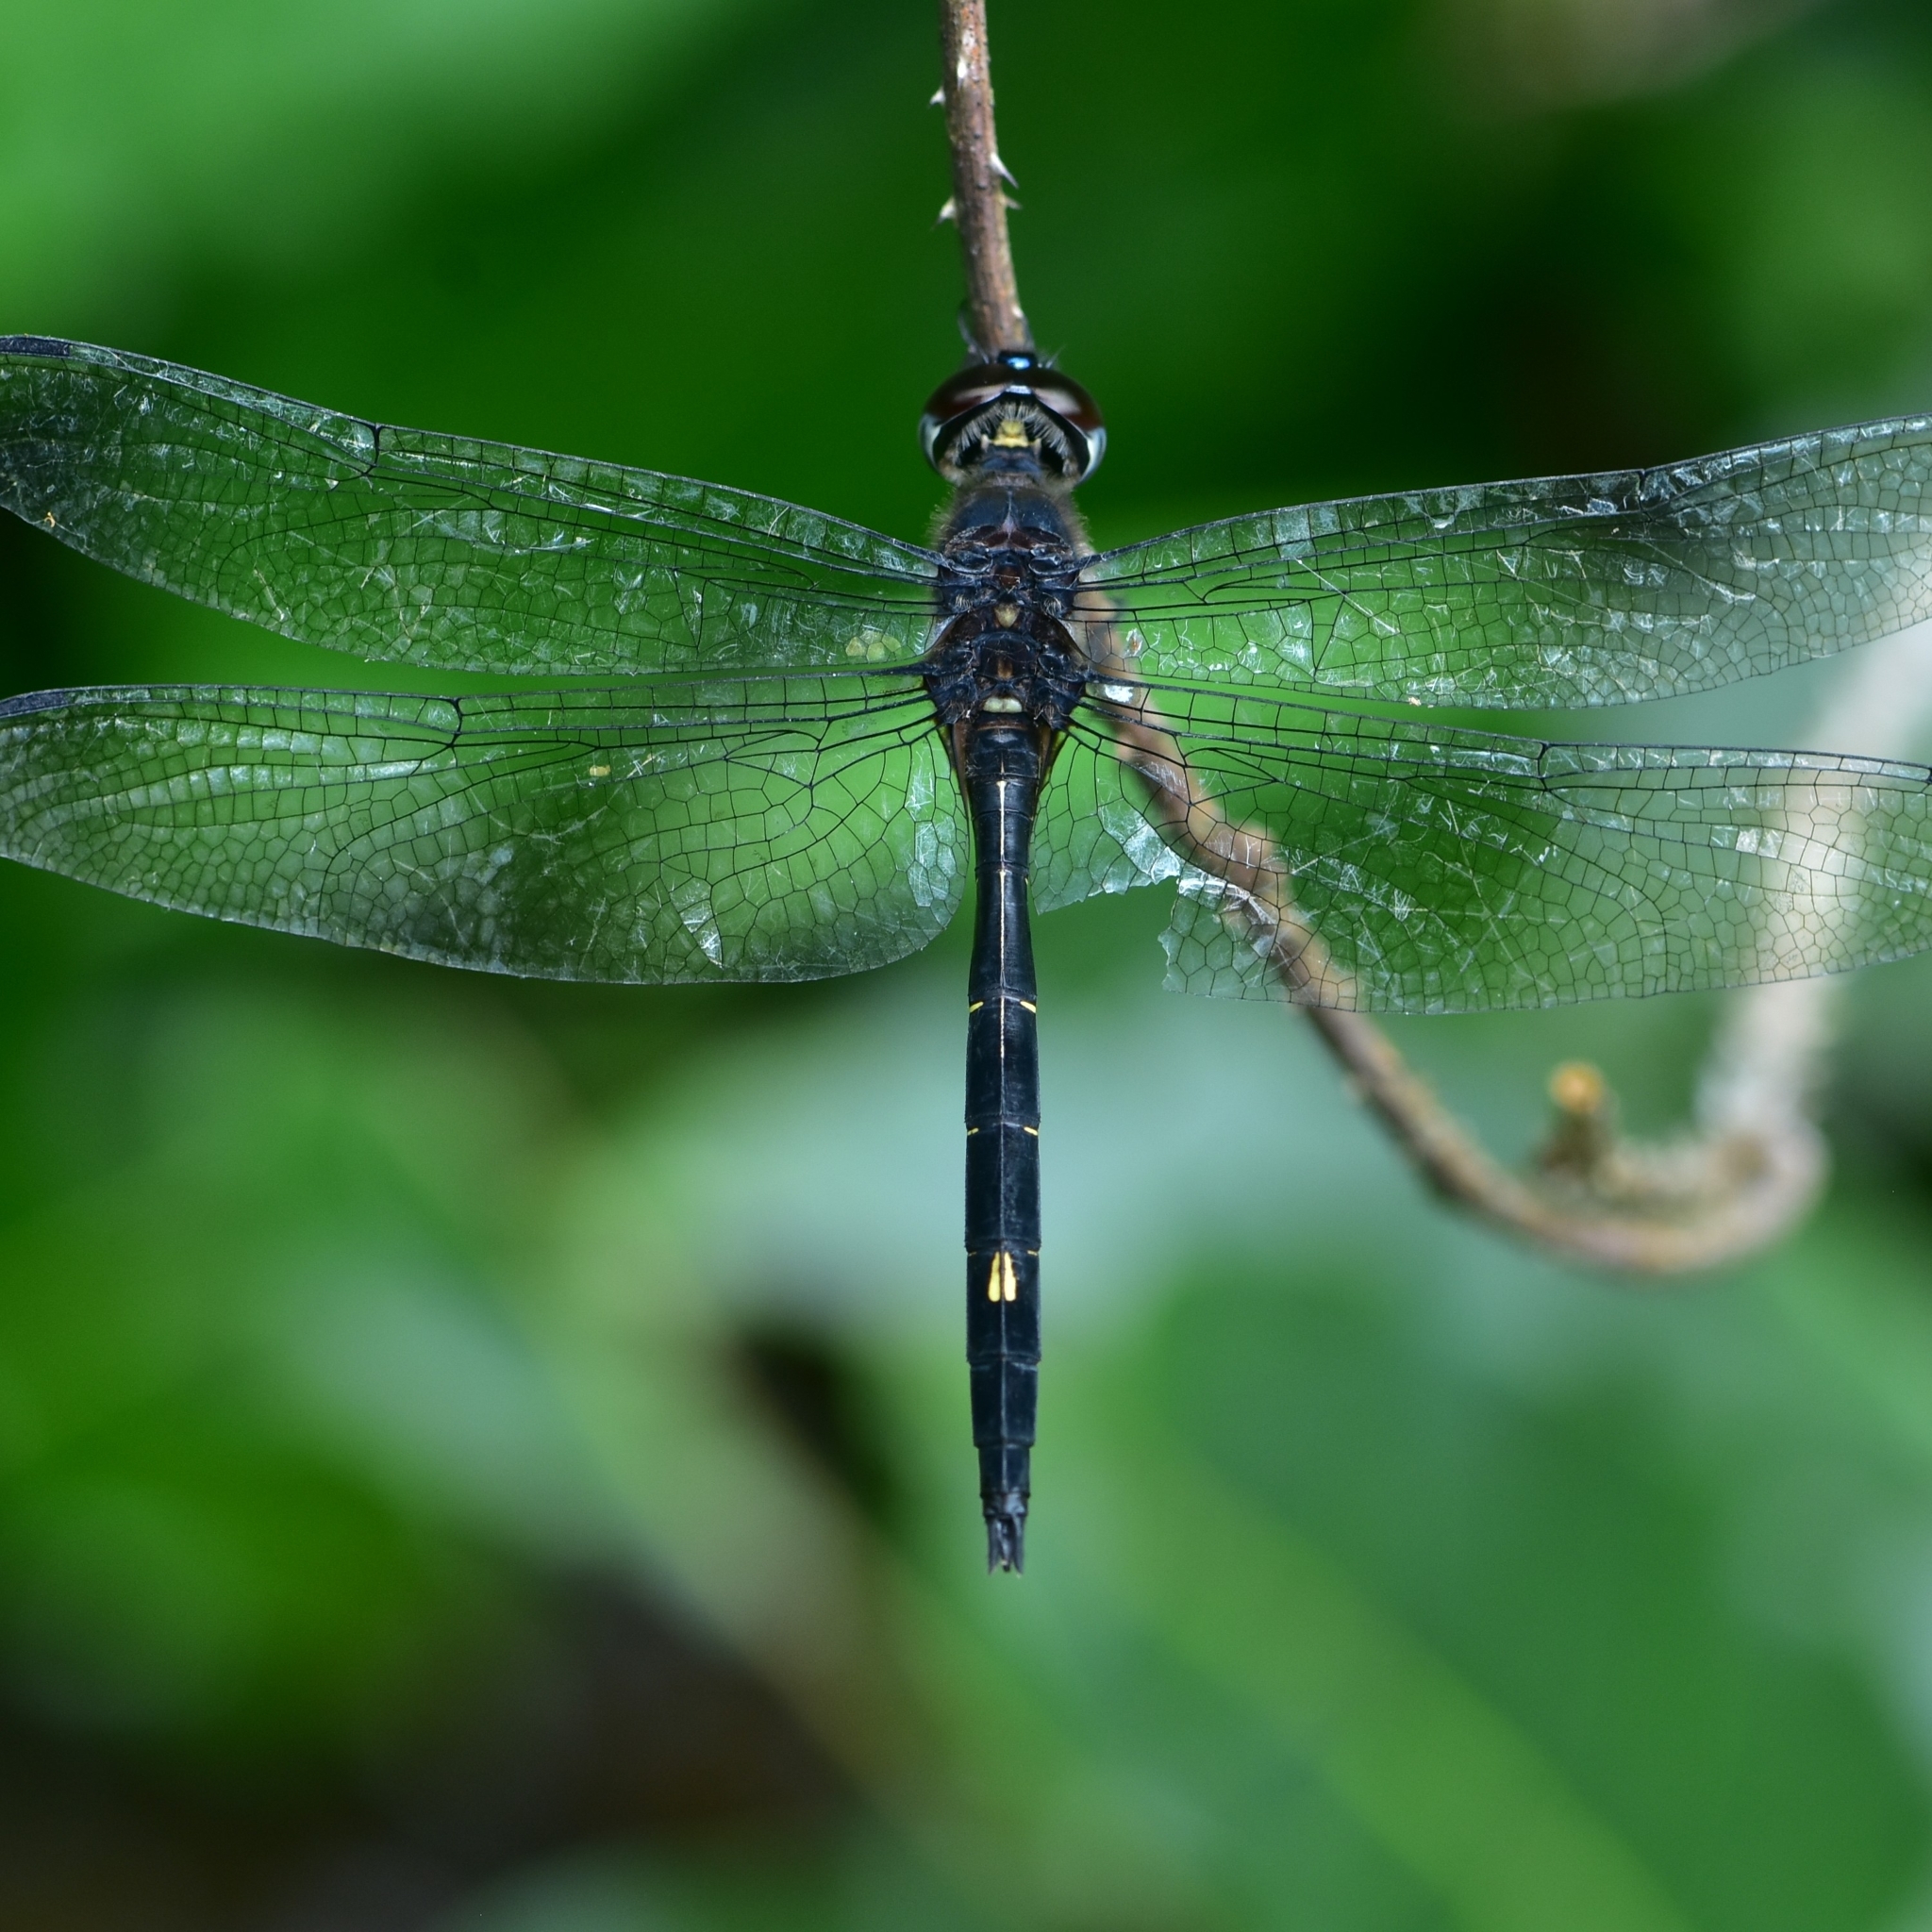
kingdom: Animalia
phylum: Arthropoda
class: Insecta
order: Odonata
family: Libellulidae
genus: Zygonyx
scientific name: Zygonyx iris
